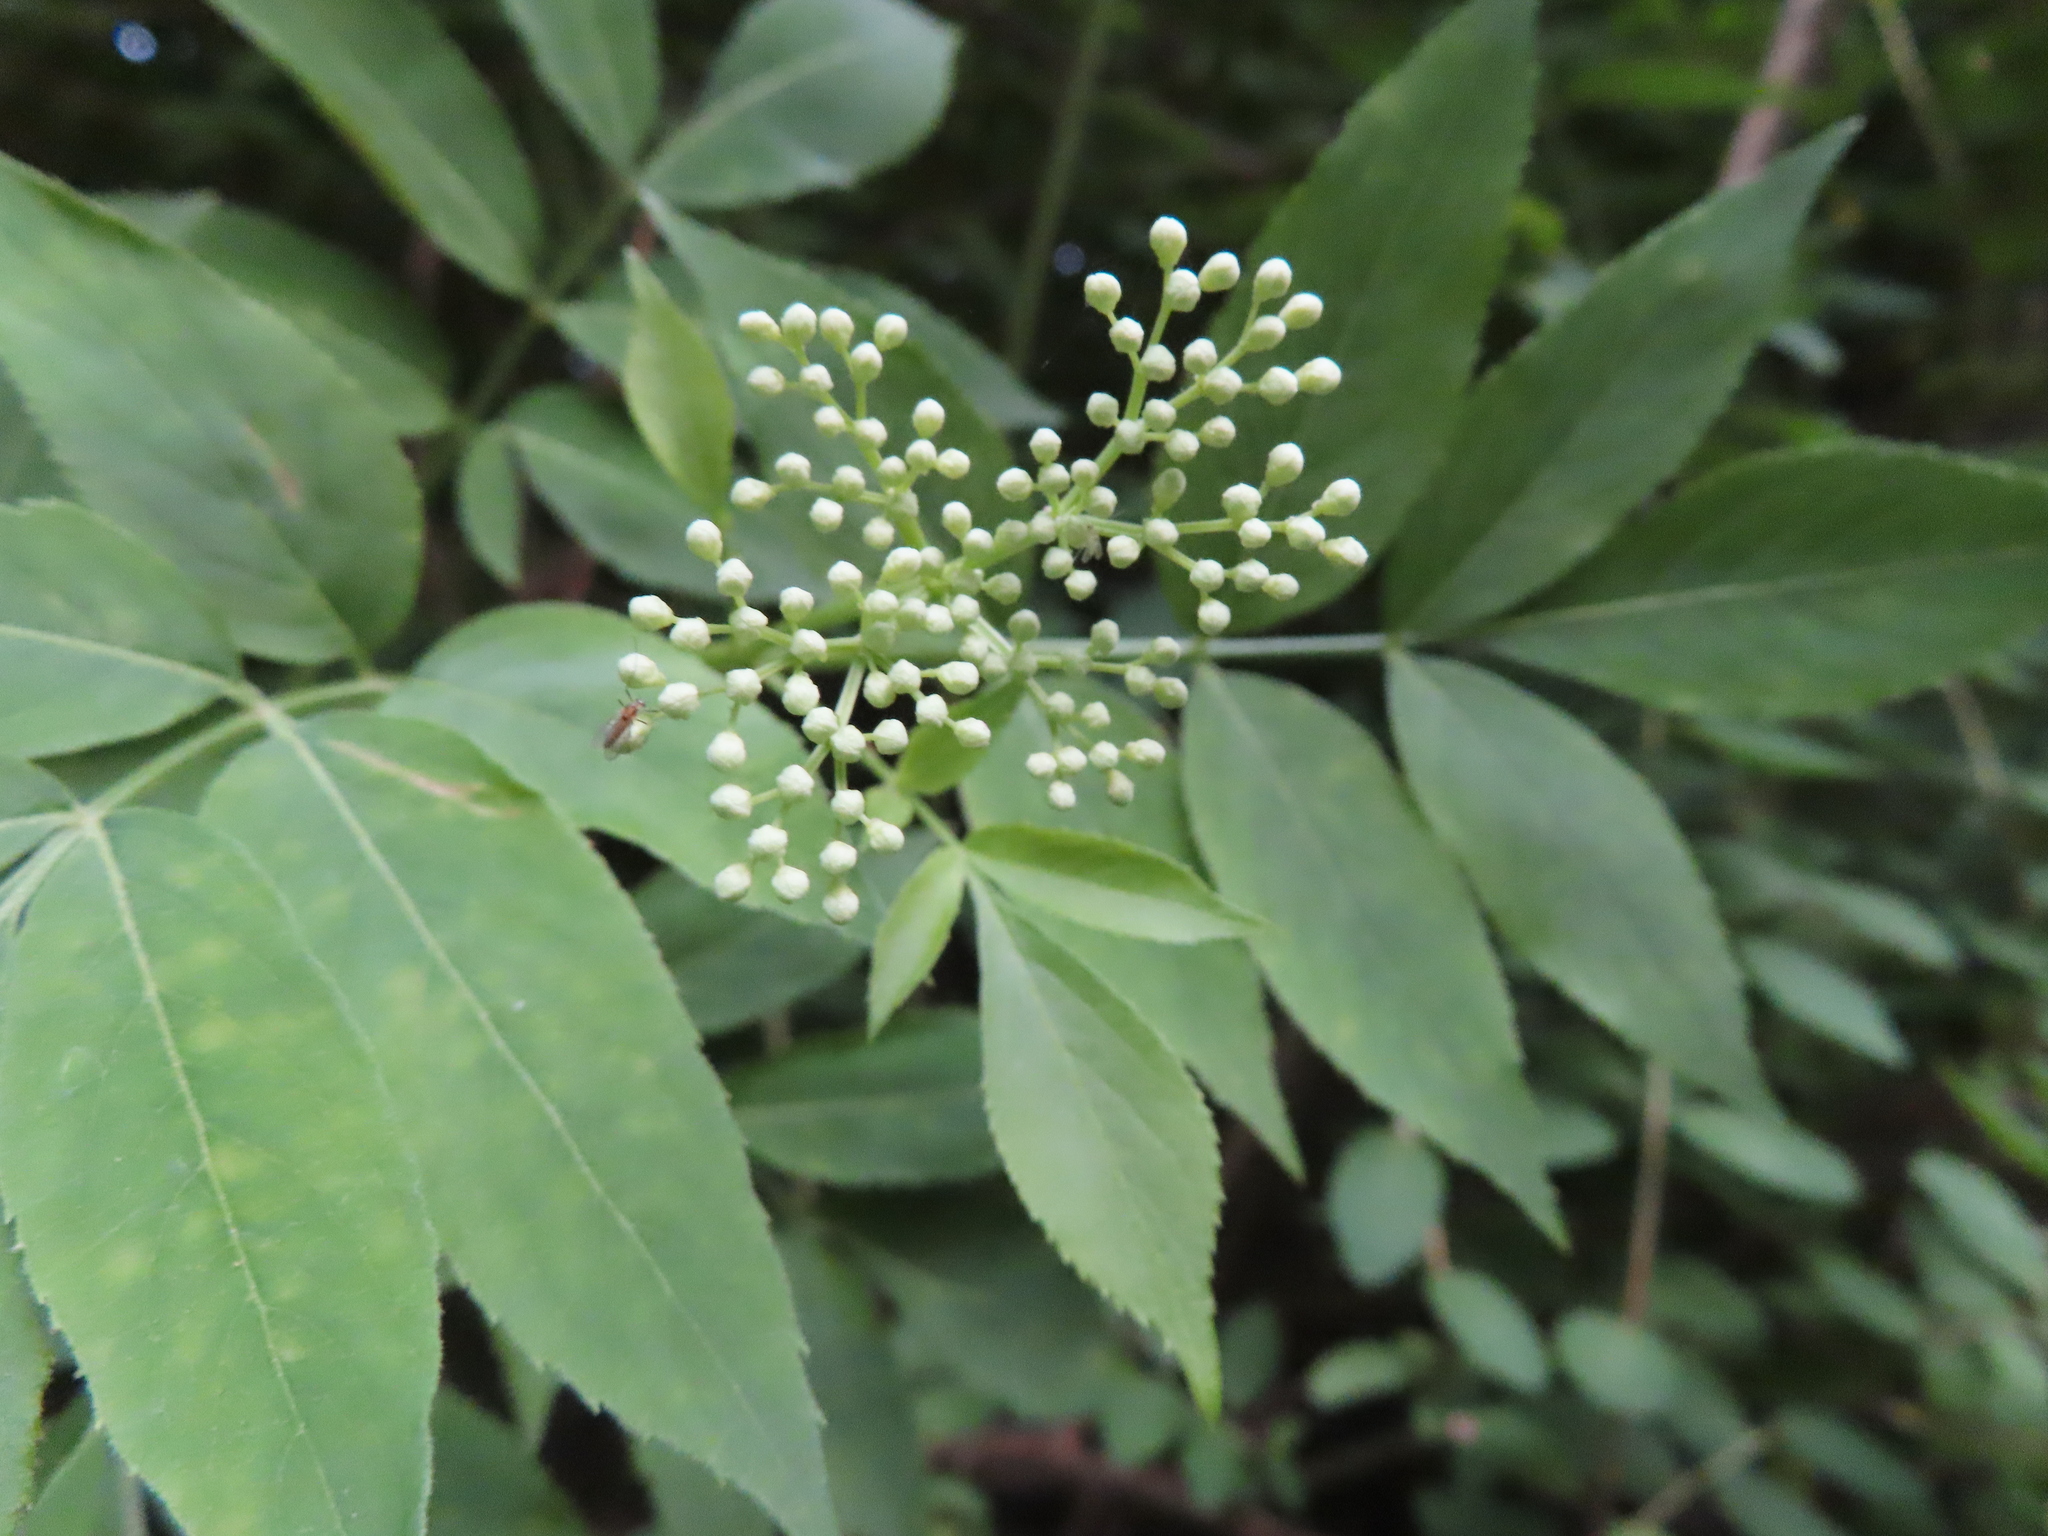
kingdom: Plantae
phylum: Tracheophyta
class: Magnoliopsida
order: Dipsacales
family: Viburnaceae
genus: Sambucus
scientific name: Sambucus canadensis
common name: American elder
